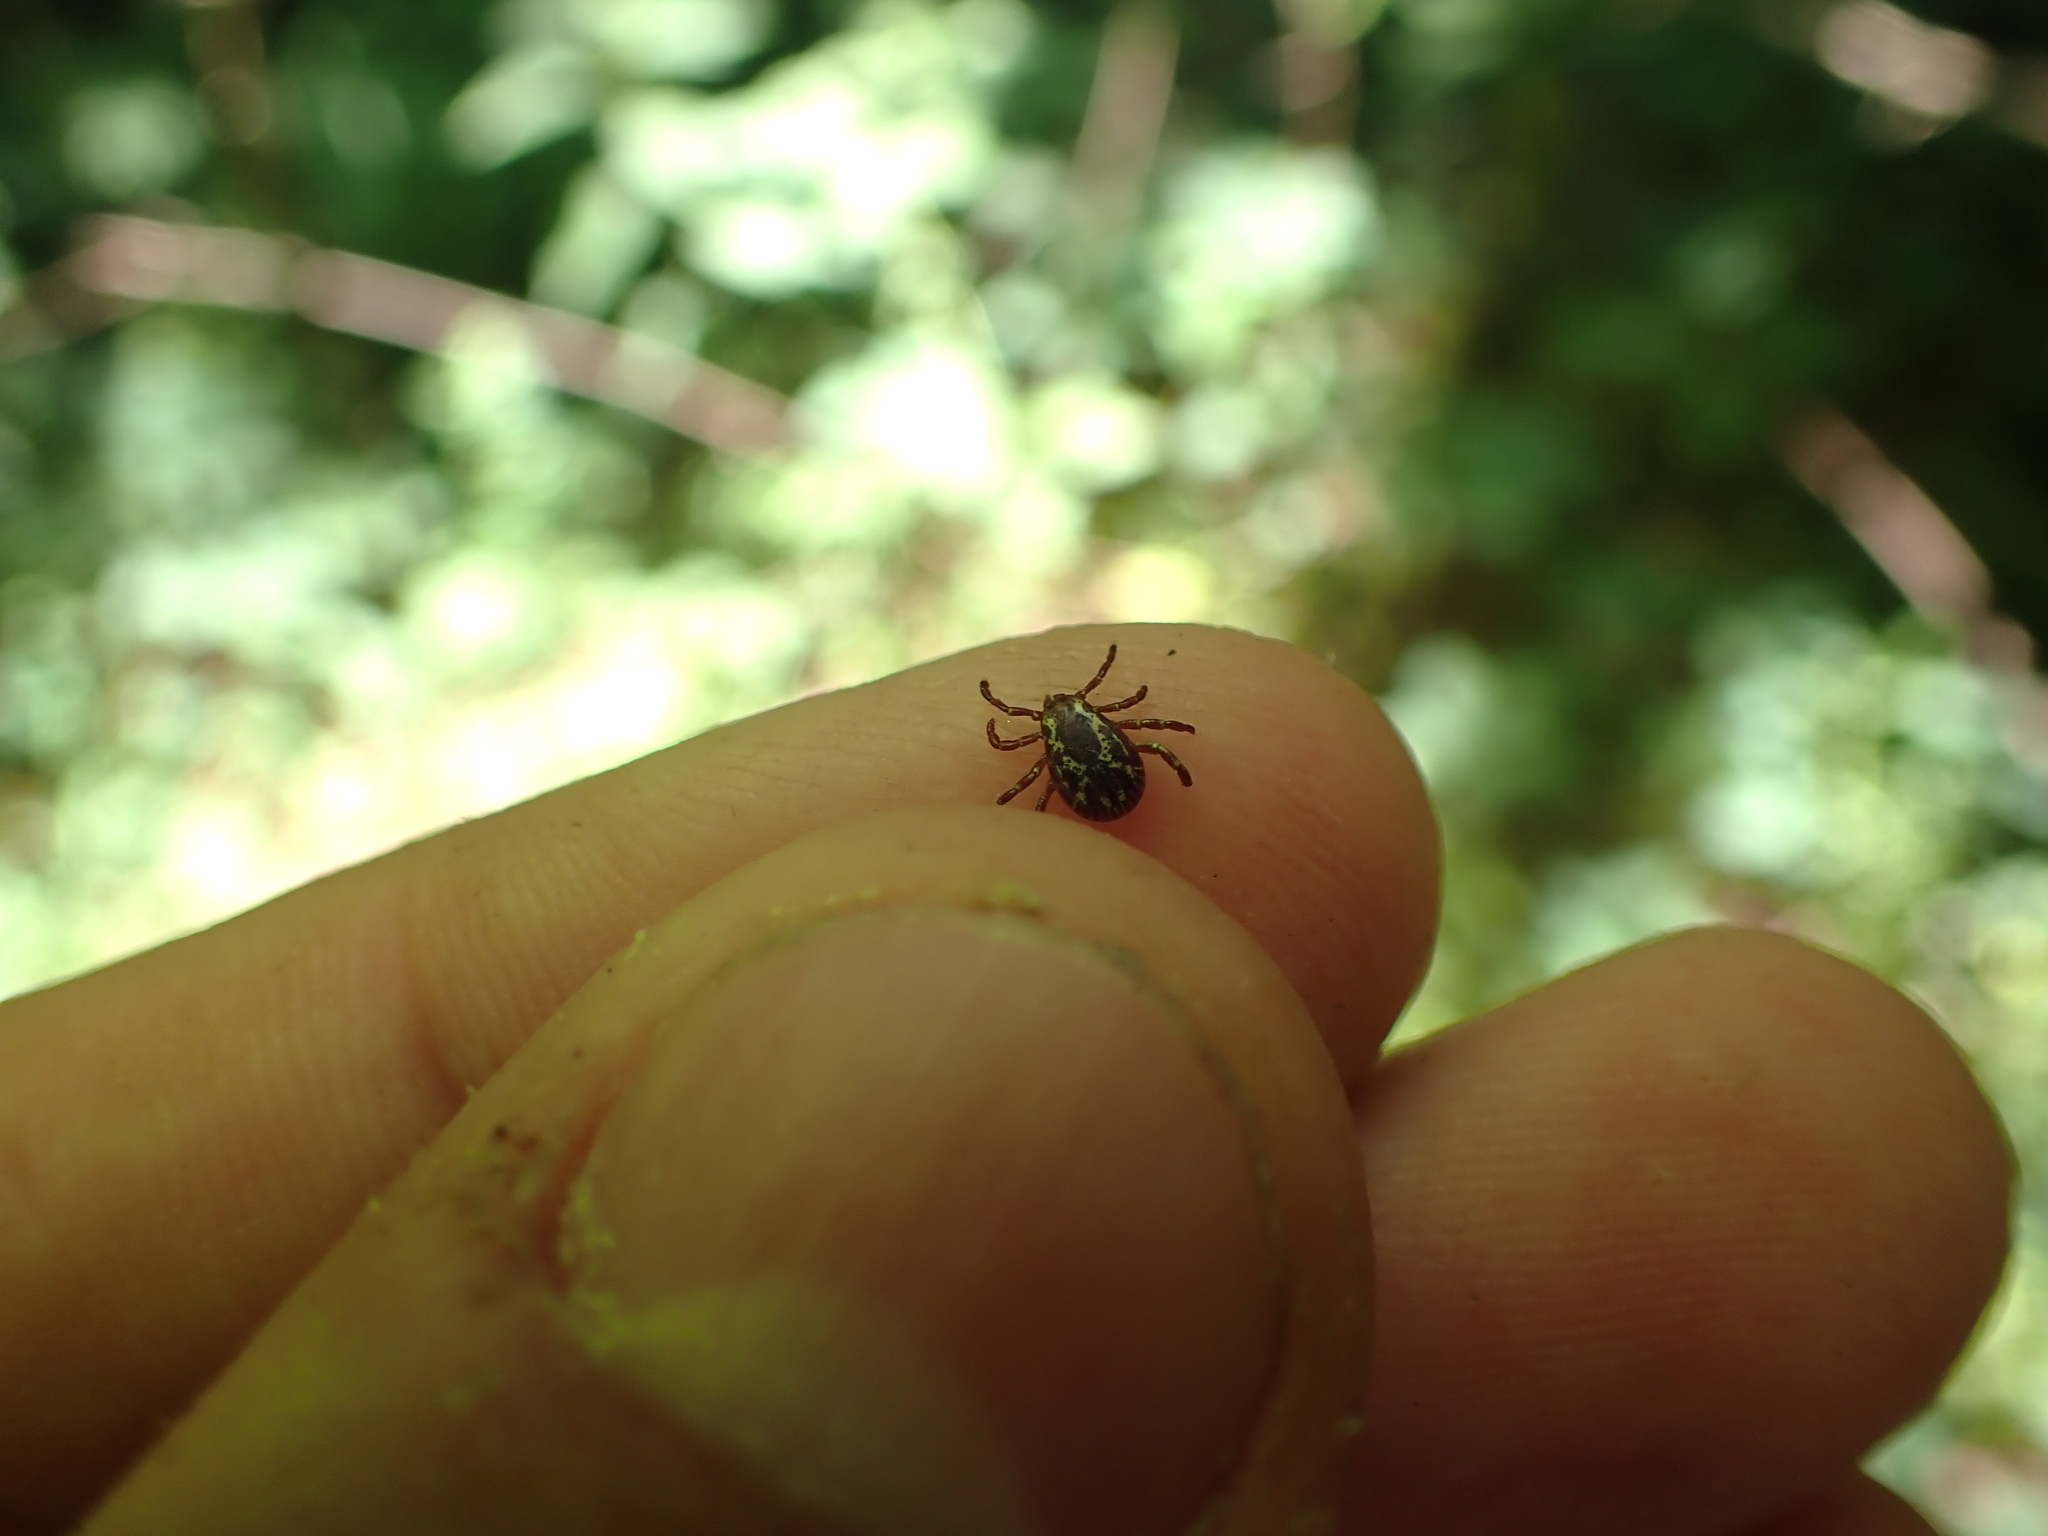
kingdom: Animalia
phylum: Arthropoda
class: Arachnida
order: Ixodida
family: Ixodidae
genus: Dermacentor
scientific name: Dermacentor variabilis
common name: American dog tick
